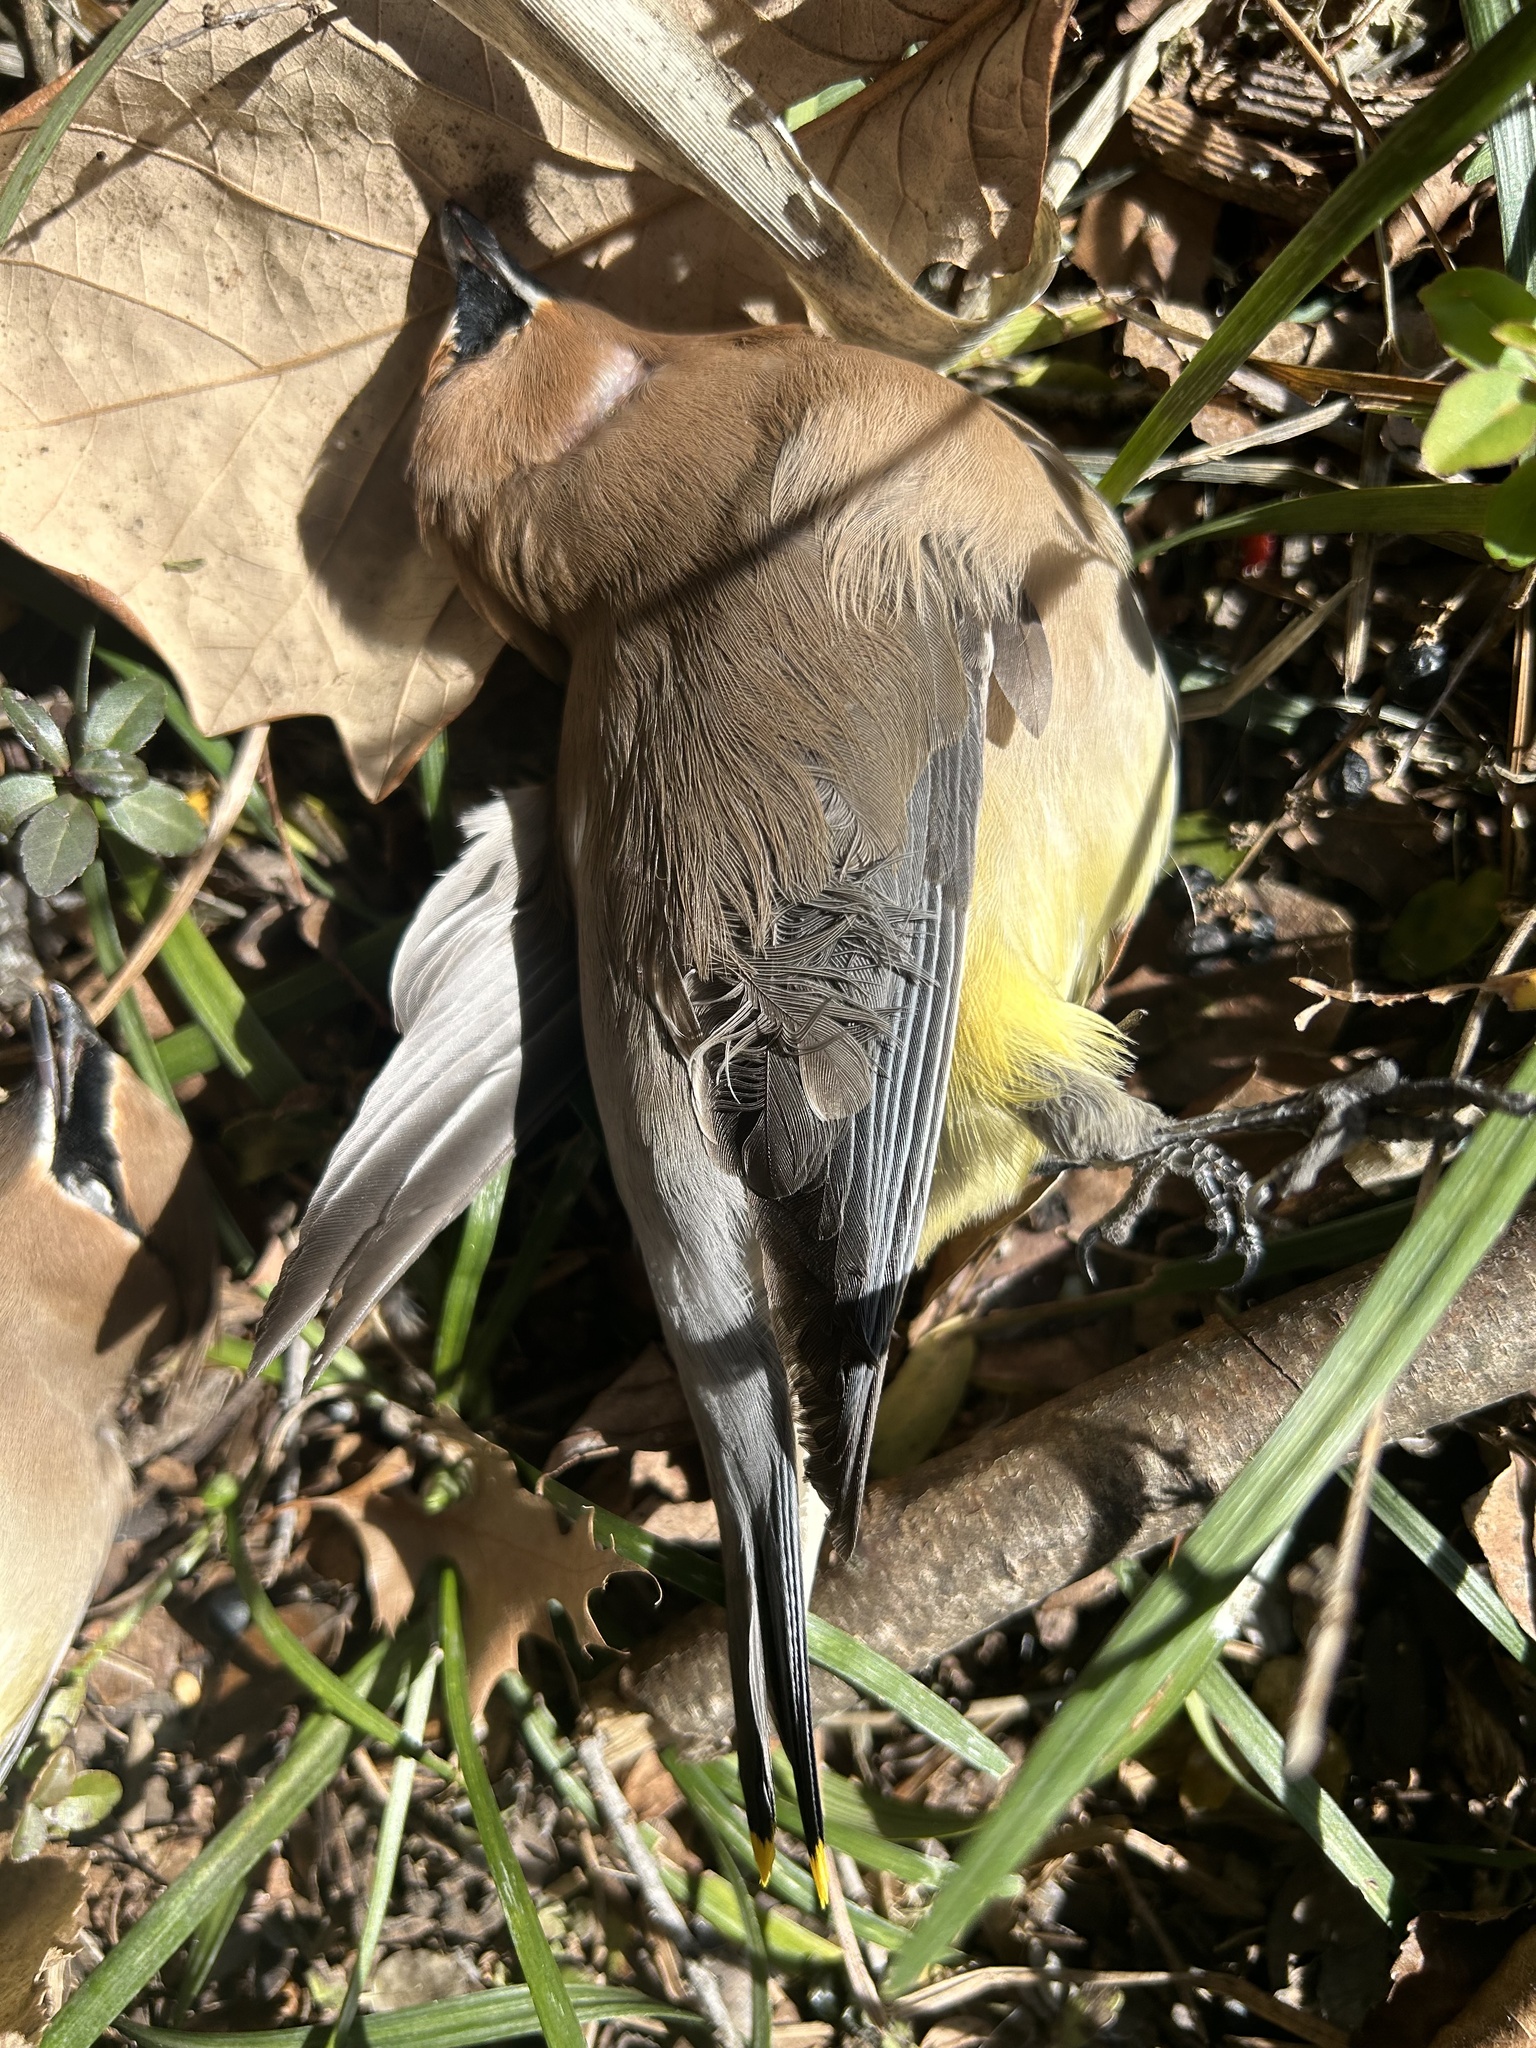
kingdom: Animalia
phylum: Chordata
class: Aves
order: Passeriformes
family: Bombycillidae
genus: Bombycilla
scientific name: Bombycilla cedrorum
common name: Cedar waxwing
